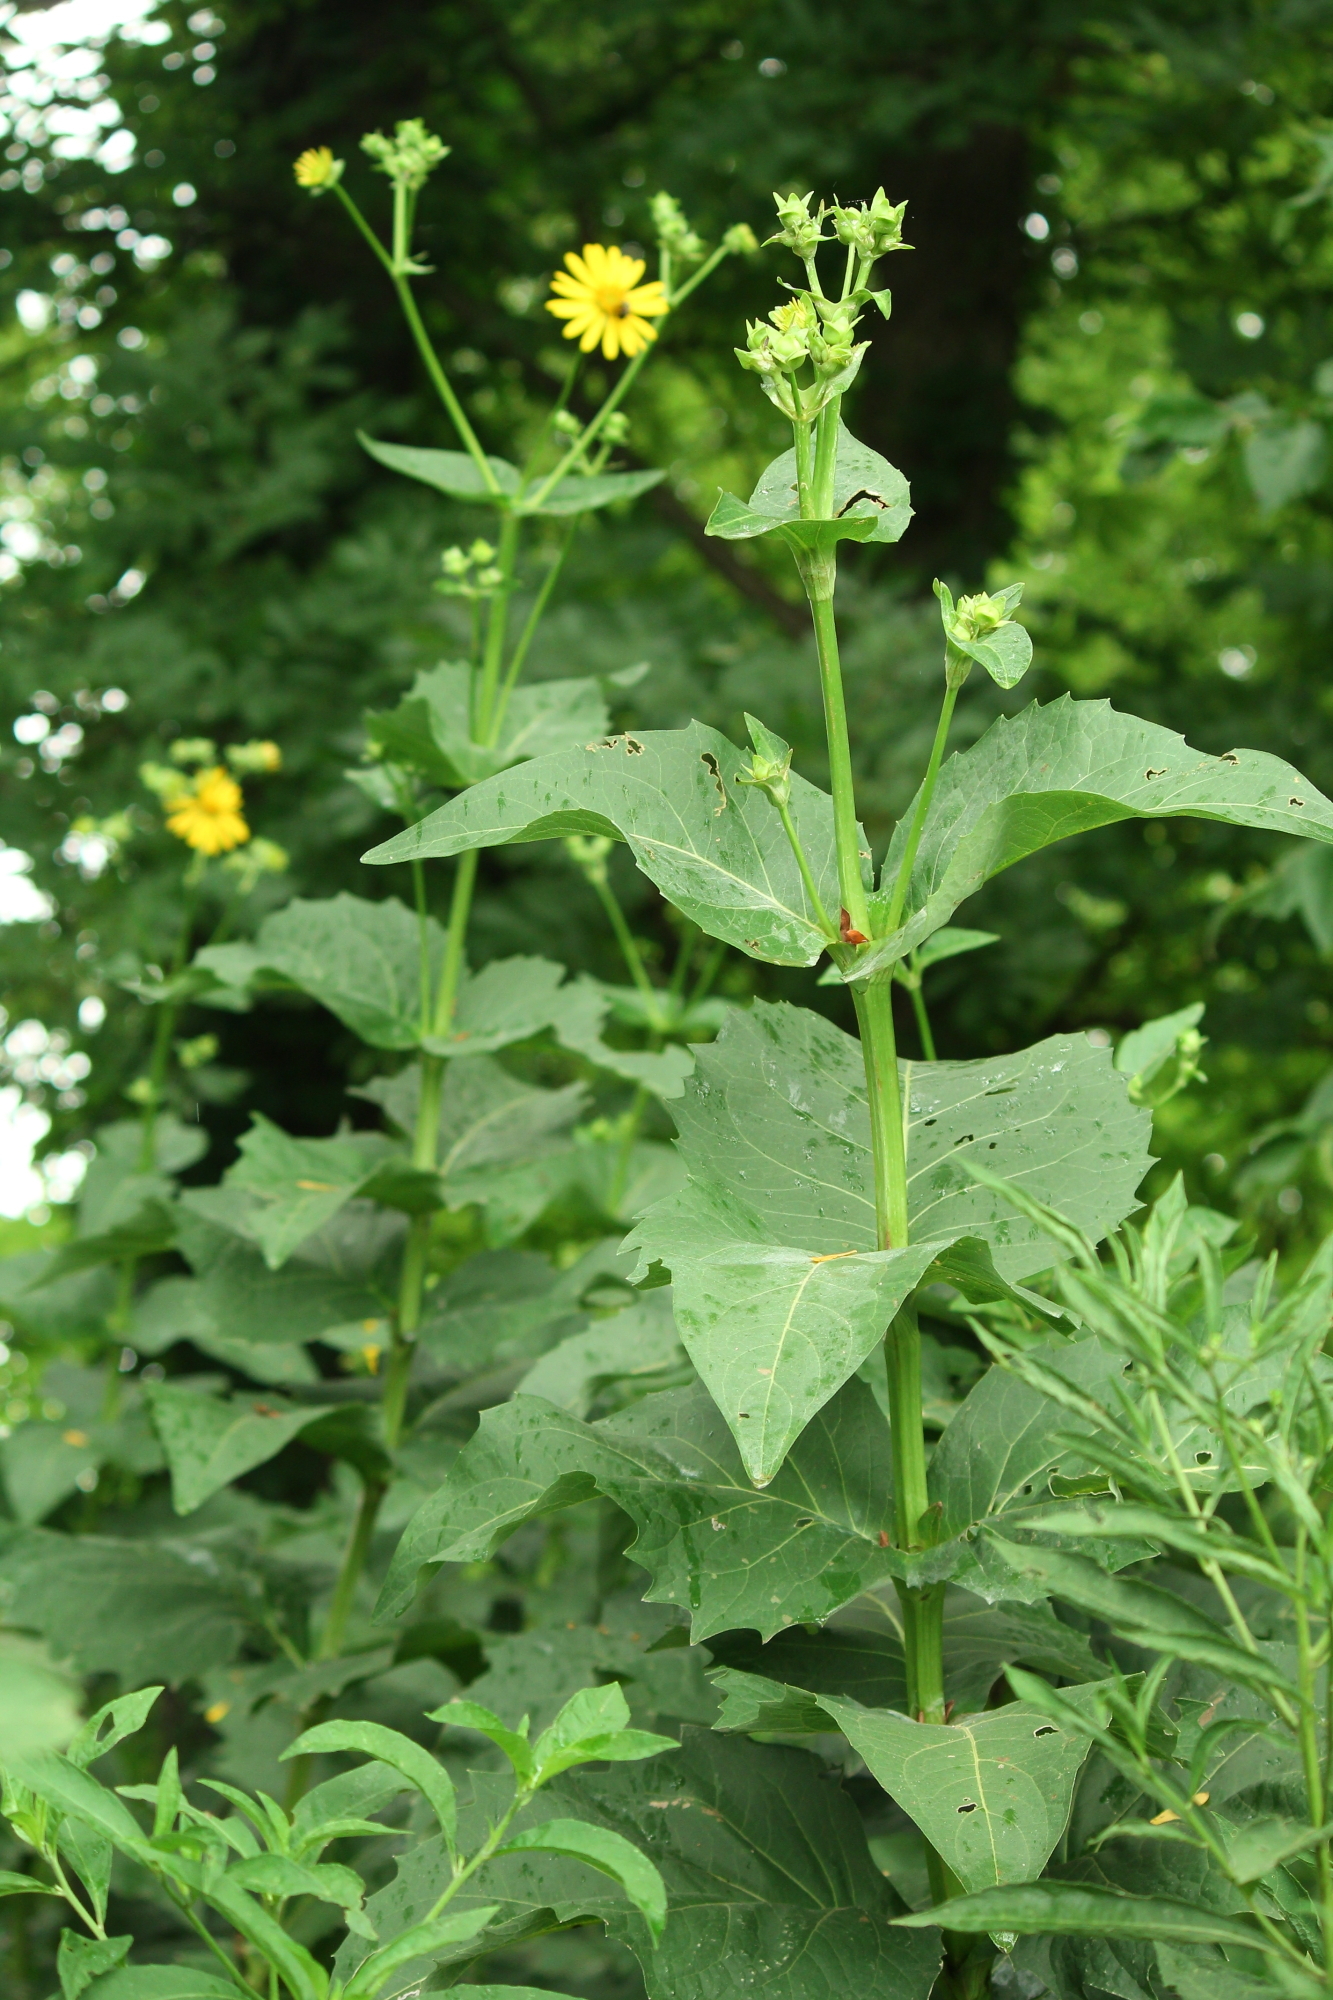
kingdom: Plantae
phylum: Tracheophyta
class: Magnoliopsida
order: Asterales
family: Asteraceae
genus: Silphium
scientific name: Silphium perfoliatum
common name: Cup-plant
